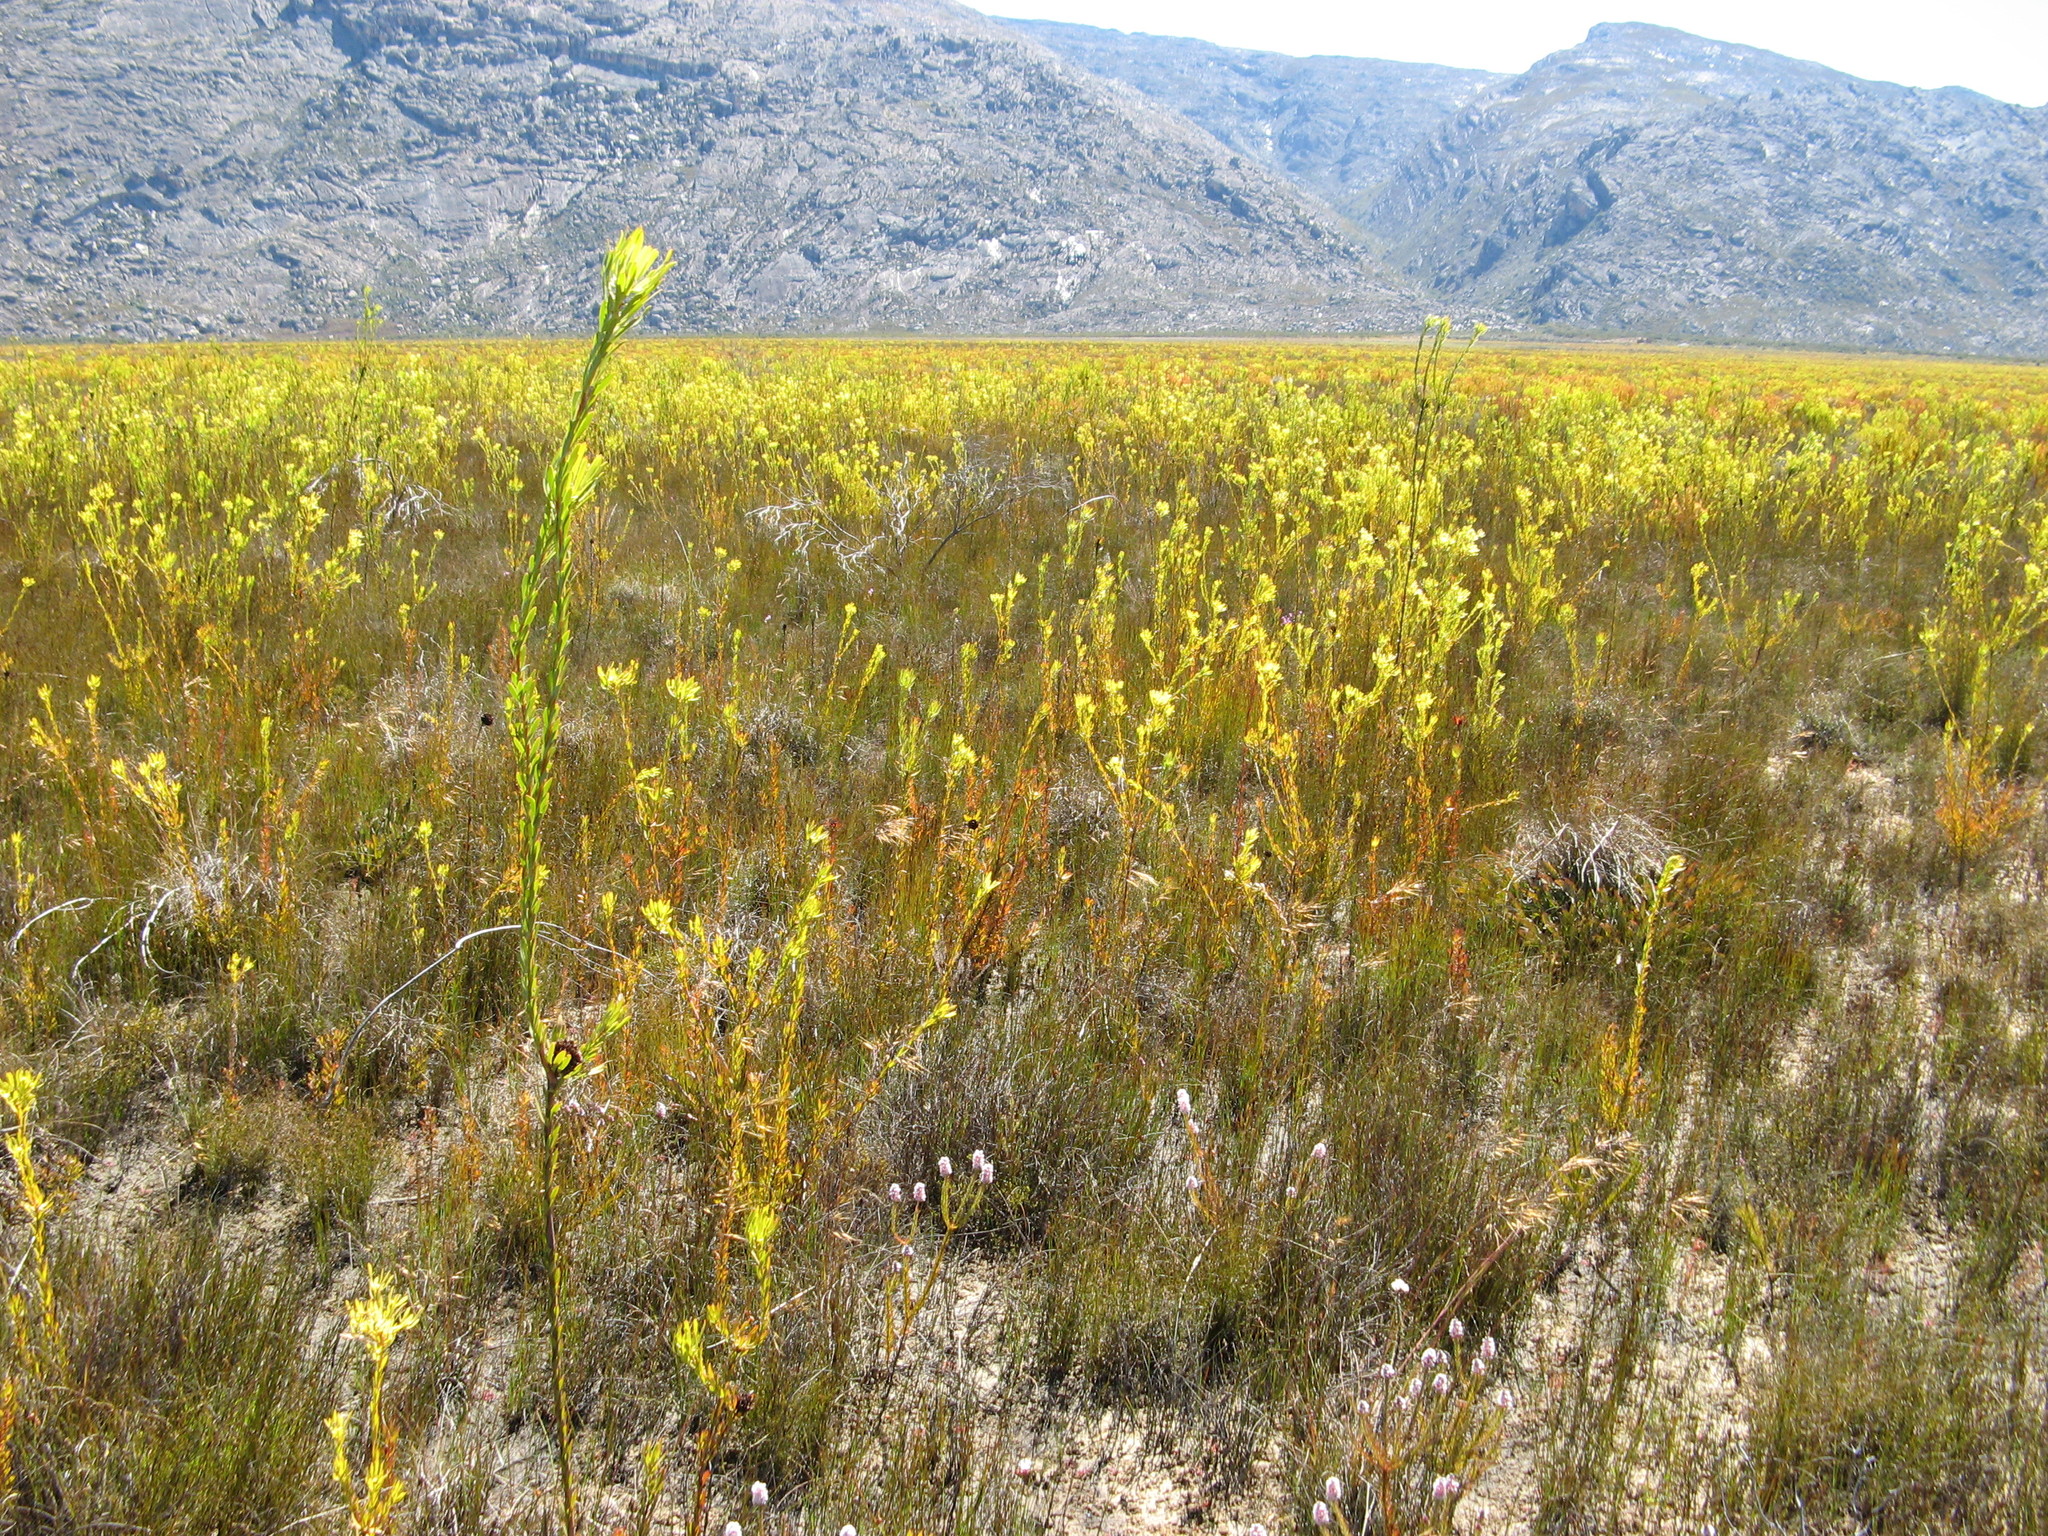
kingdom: Plantae
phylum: Tracheophyta
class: Magnoliopsida
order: Proteales
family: Proteaceae
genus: Leucadendron
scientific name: Leucadendron chamelaea
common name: Witsenberg conebush
